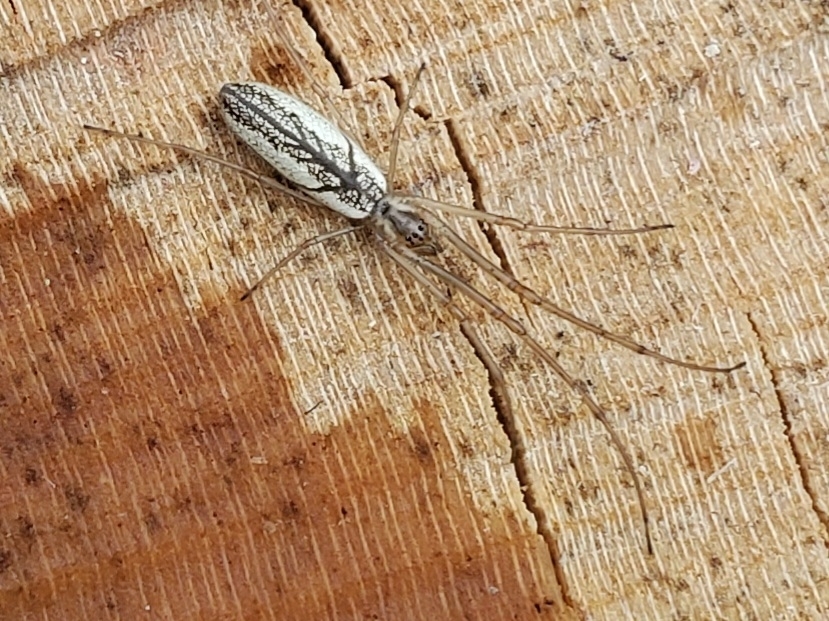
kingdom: Animalia
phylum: Arthropoda
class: Arachnida
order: Araneae
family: Tetragnathidae
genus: Tetragnatha
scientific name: Tetragnatha extensa
